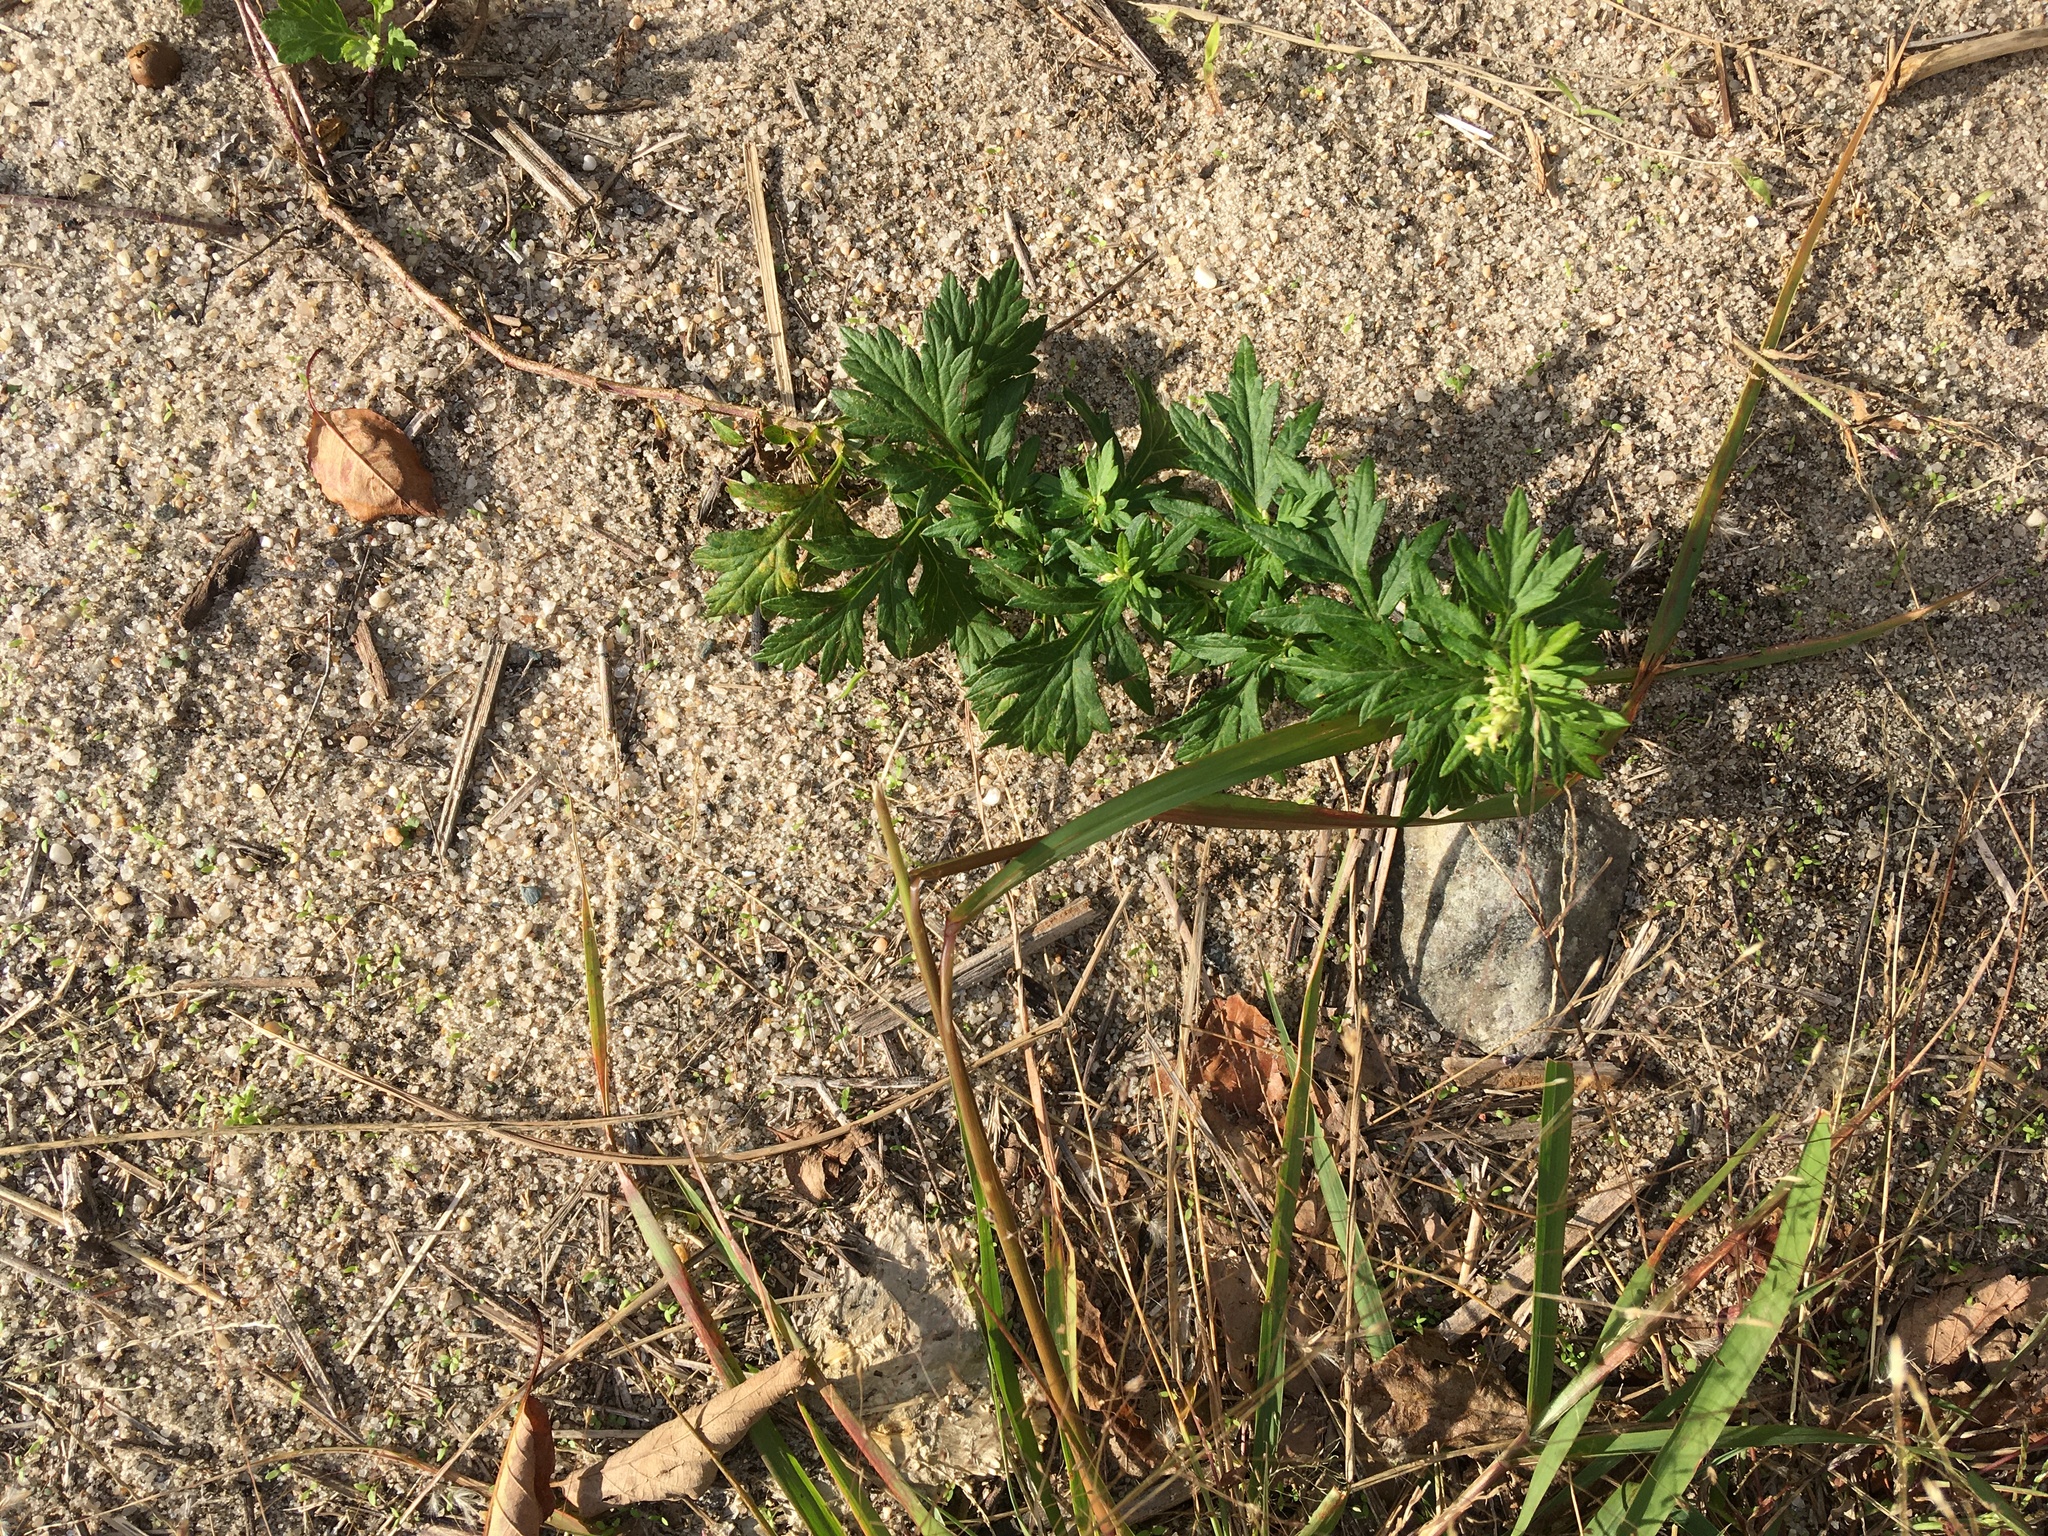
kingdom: Plantae
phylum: Tracheophyta
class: Magnoliopsida
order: Asterales
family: Asteraceae
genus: Artemisia
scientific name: Artemisia vulgaris
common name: Mugwort
